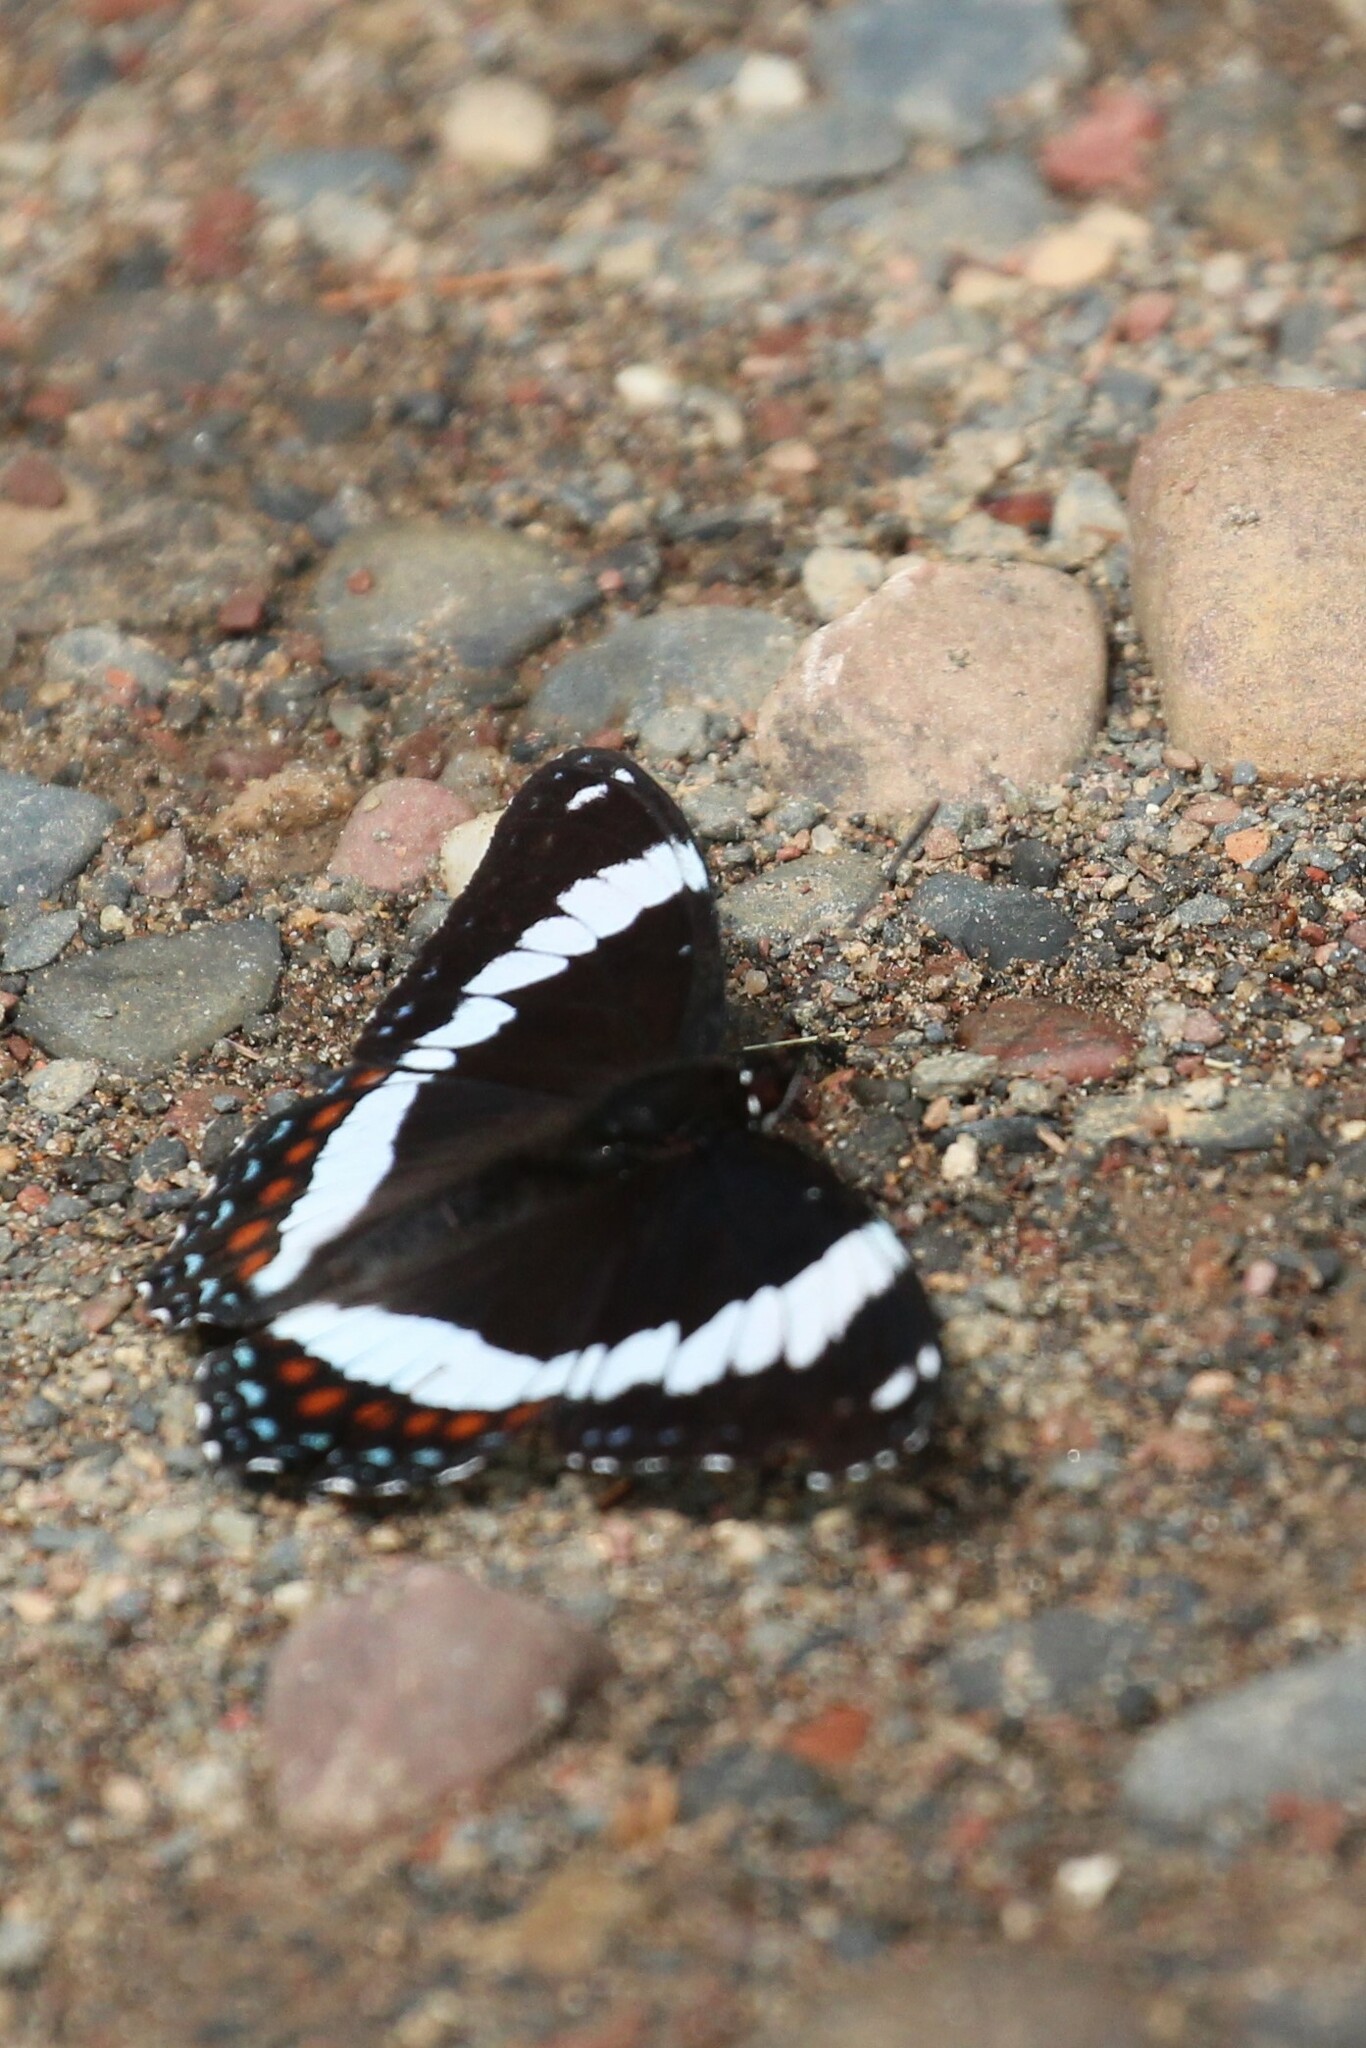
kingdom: Animalia
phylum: Arthropoda
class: Insecta
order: Lepidoptera
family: Nymphalidae
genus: Limenitis
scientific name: Limenitis arthemis
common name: Red-spotted admiral
